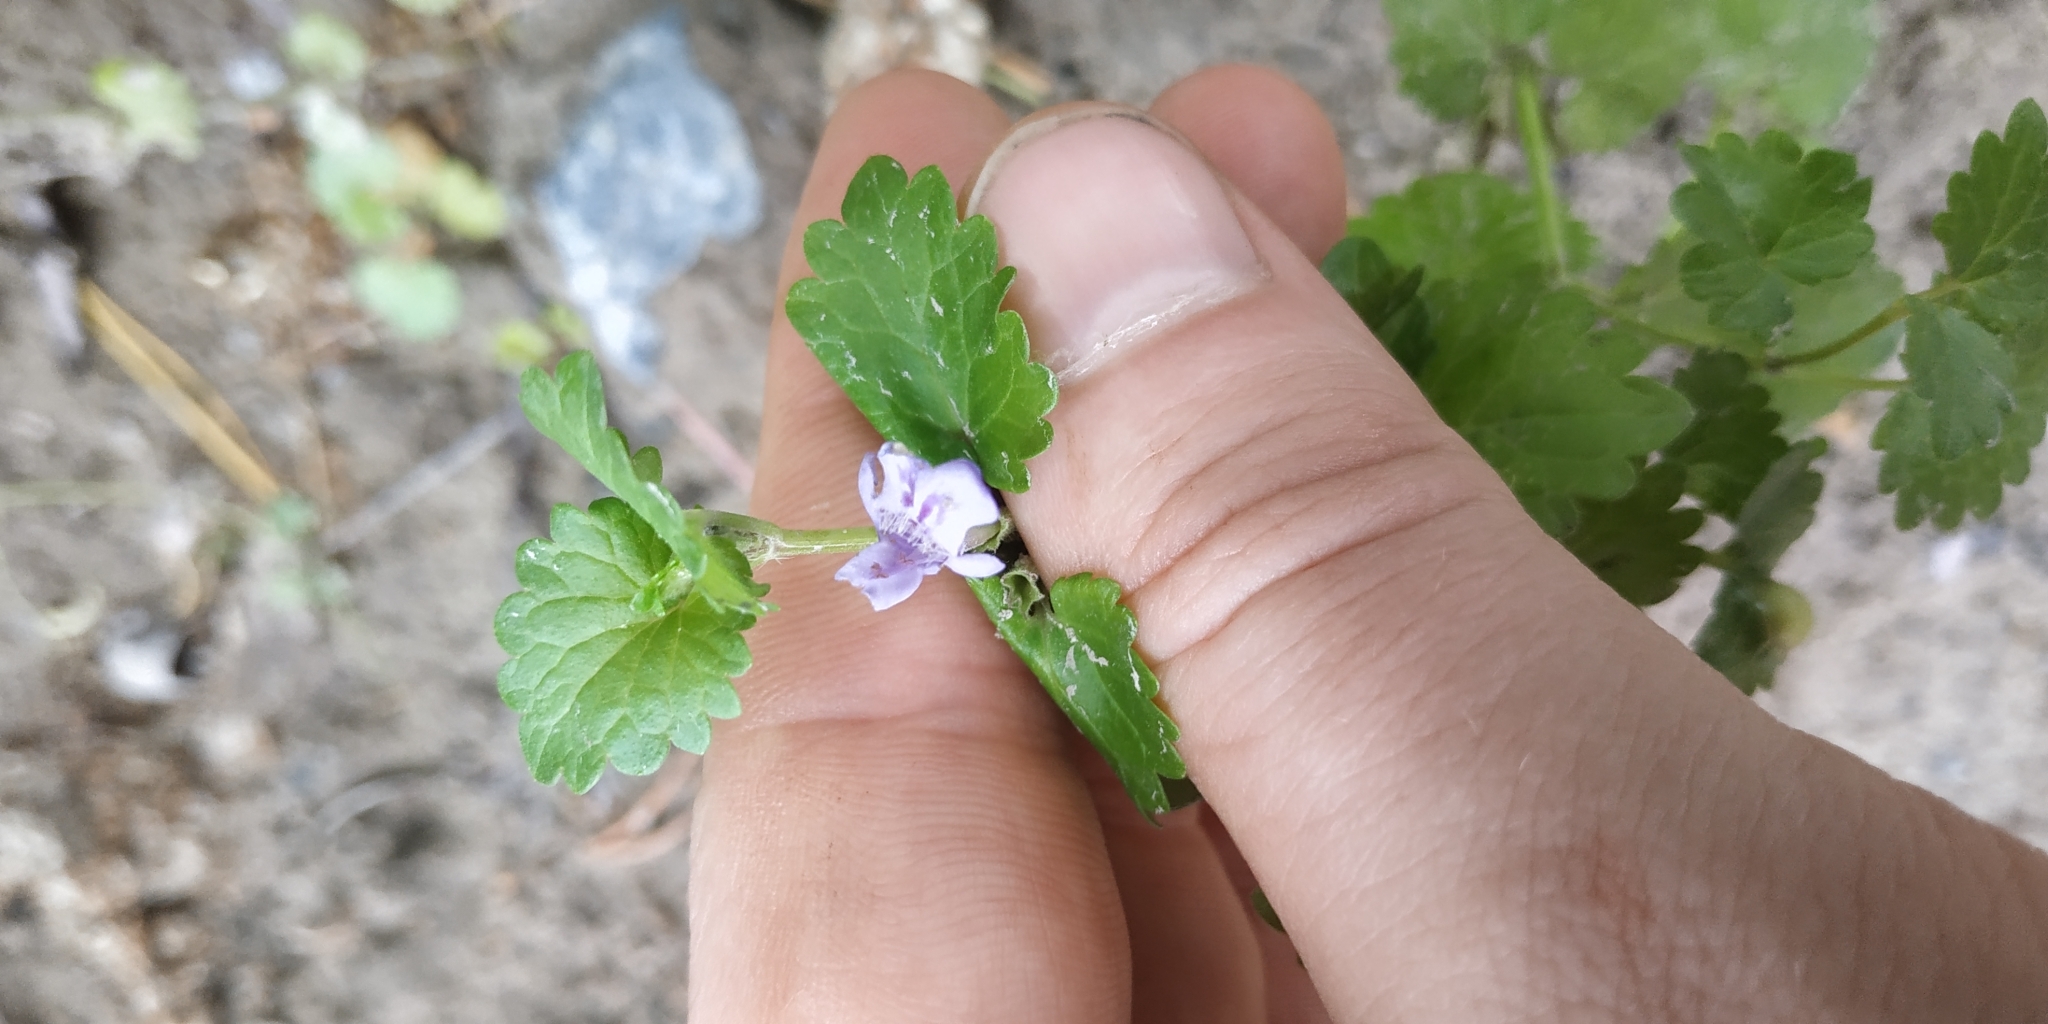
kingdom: Plantae
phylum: Tracheophyta
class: Magnoliopsida
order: Lamiales
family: Lamiaceae
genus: Glechoma
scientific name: Glechoma hederacea
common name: Ground ivy
